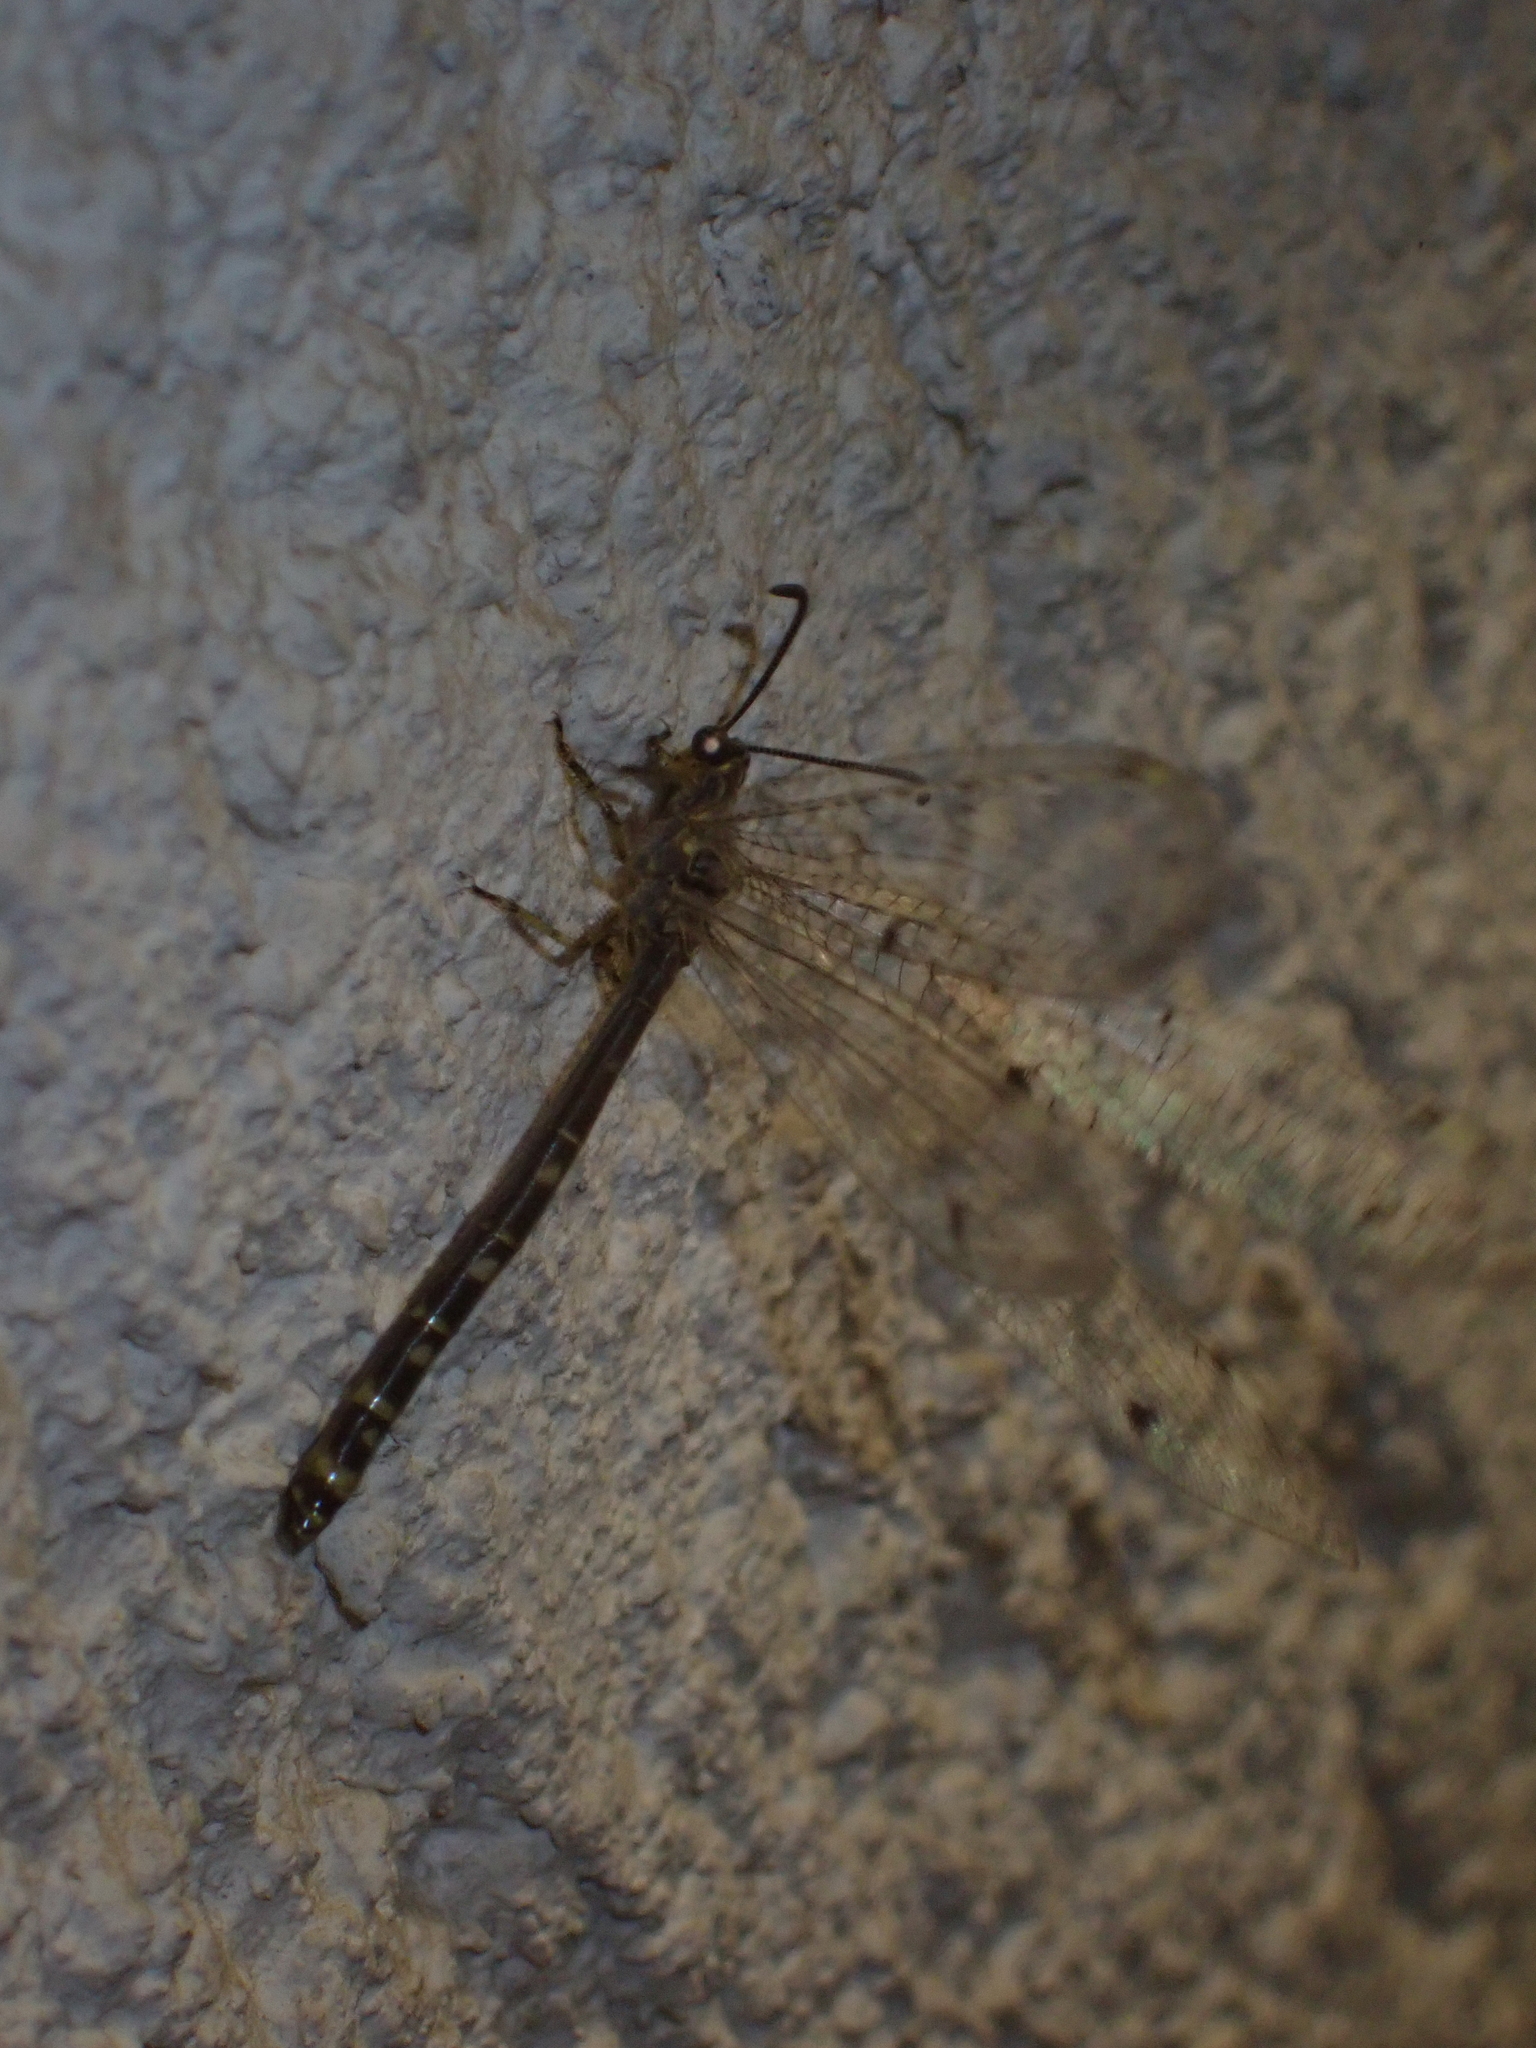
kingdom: Animalia
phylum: Arthropoda
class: Insecta
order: Neuroptera
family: Myrmeleontidae
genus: Distoleon
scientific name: Distoleon tetragrammicus
